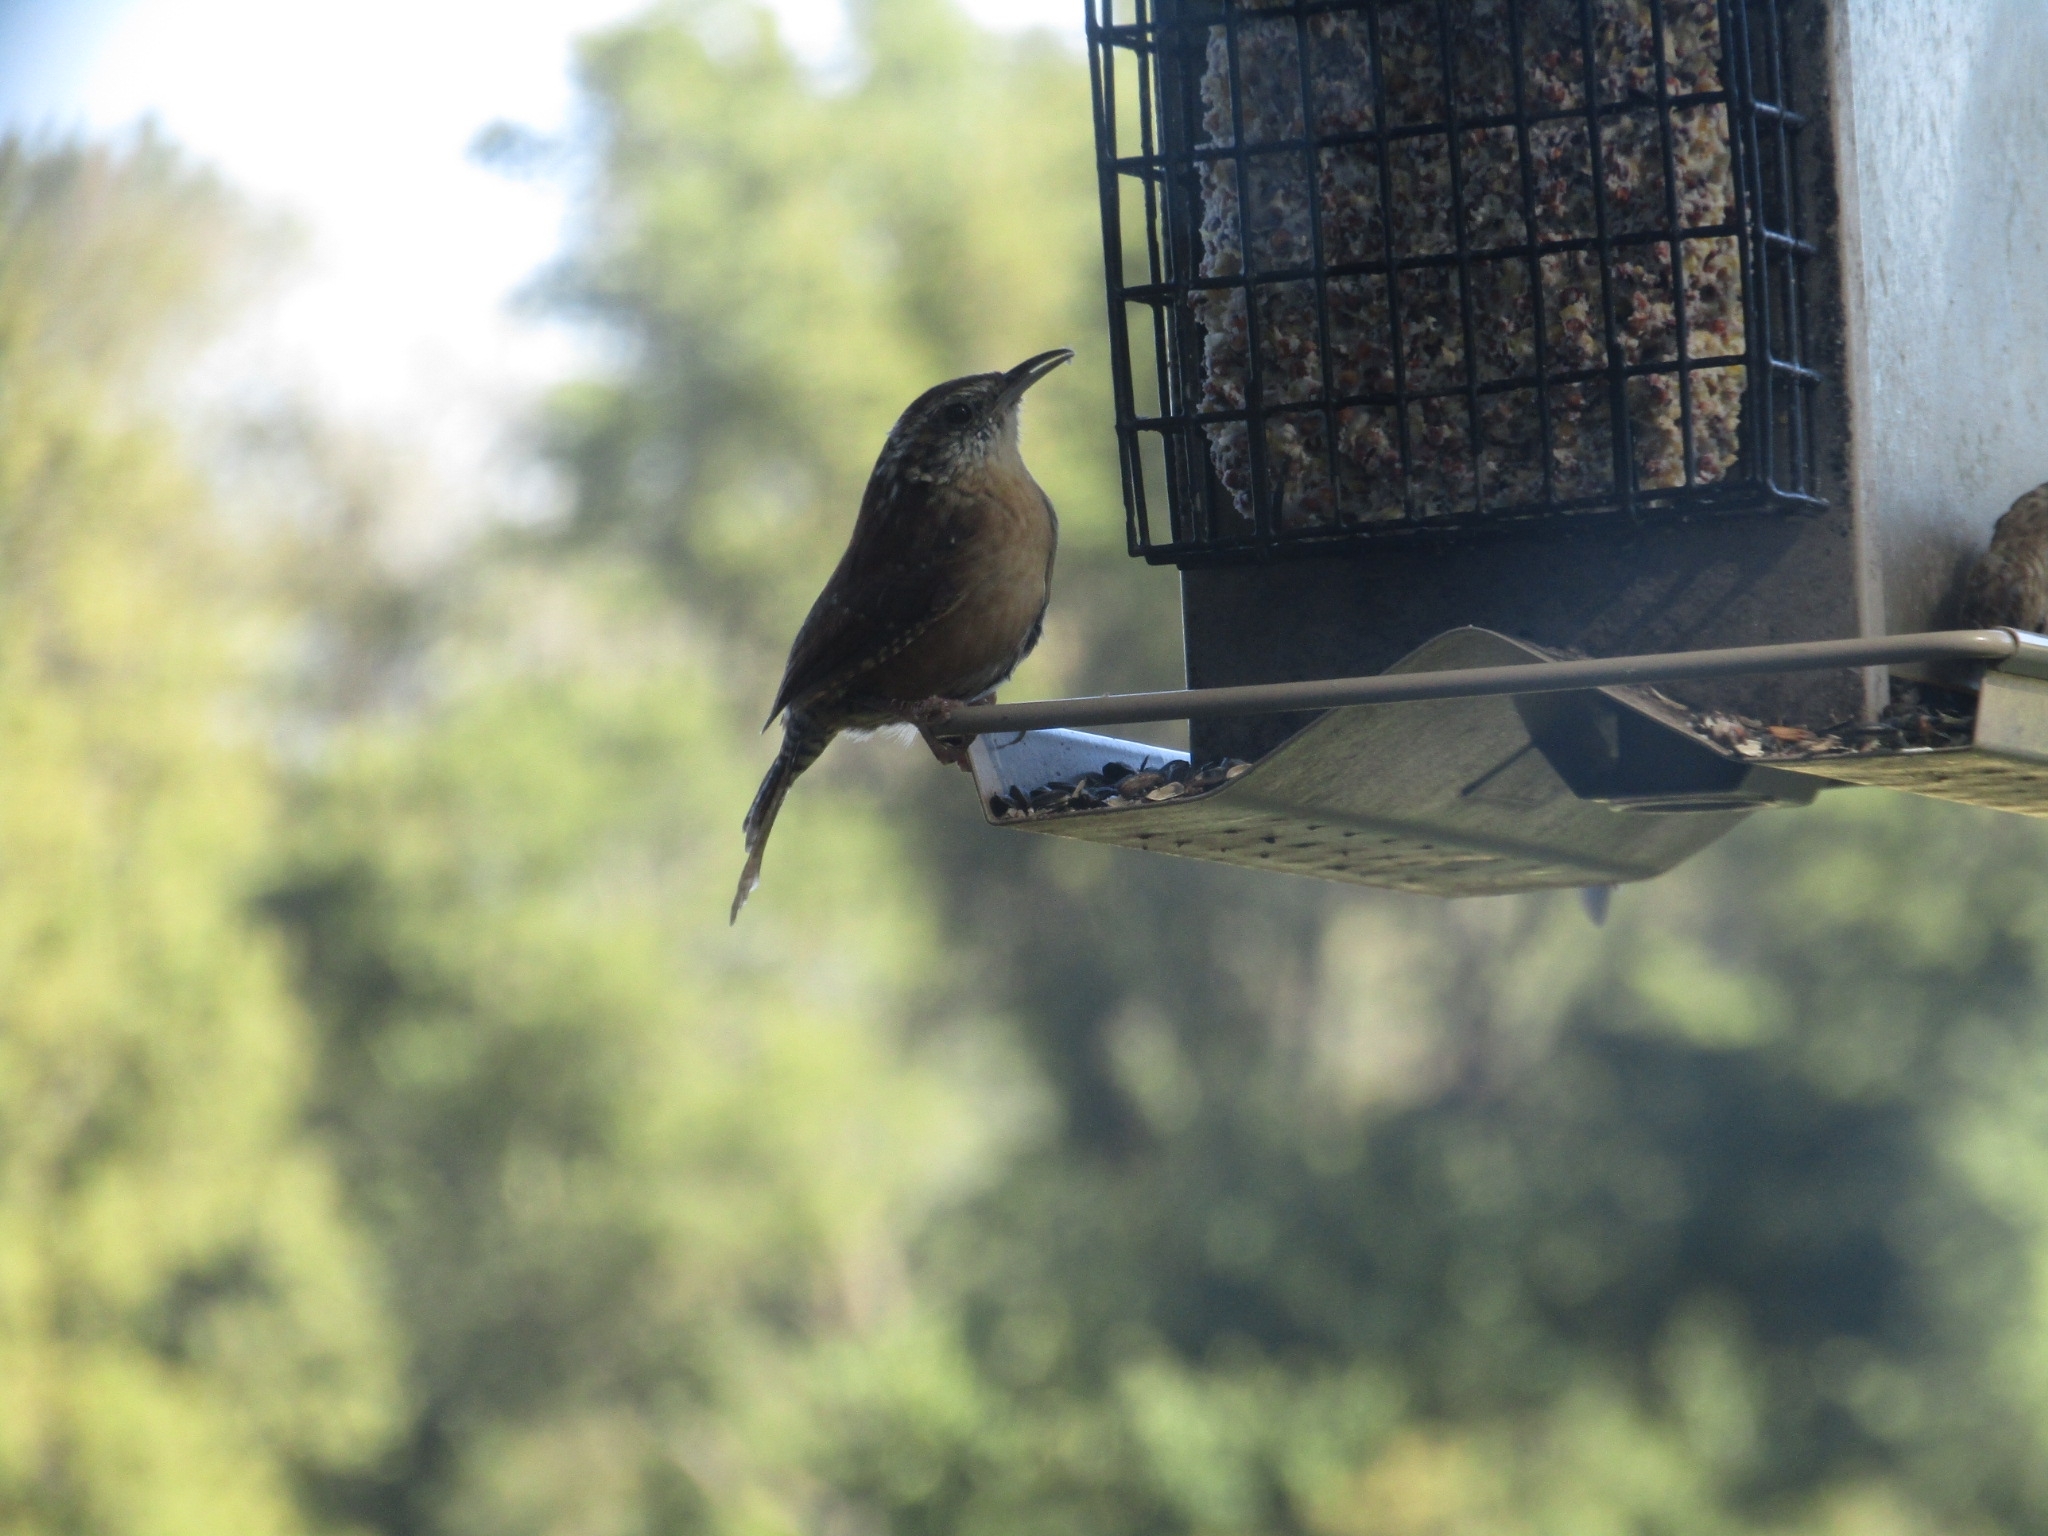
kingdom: Animalia
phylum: Chordata
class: Aves
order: Passeriformes
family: Troglodytidae
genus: Thryothorus
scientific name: Thryothorus ludovicianus
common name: Carolina wren
